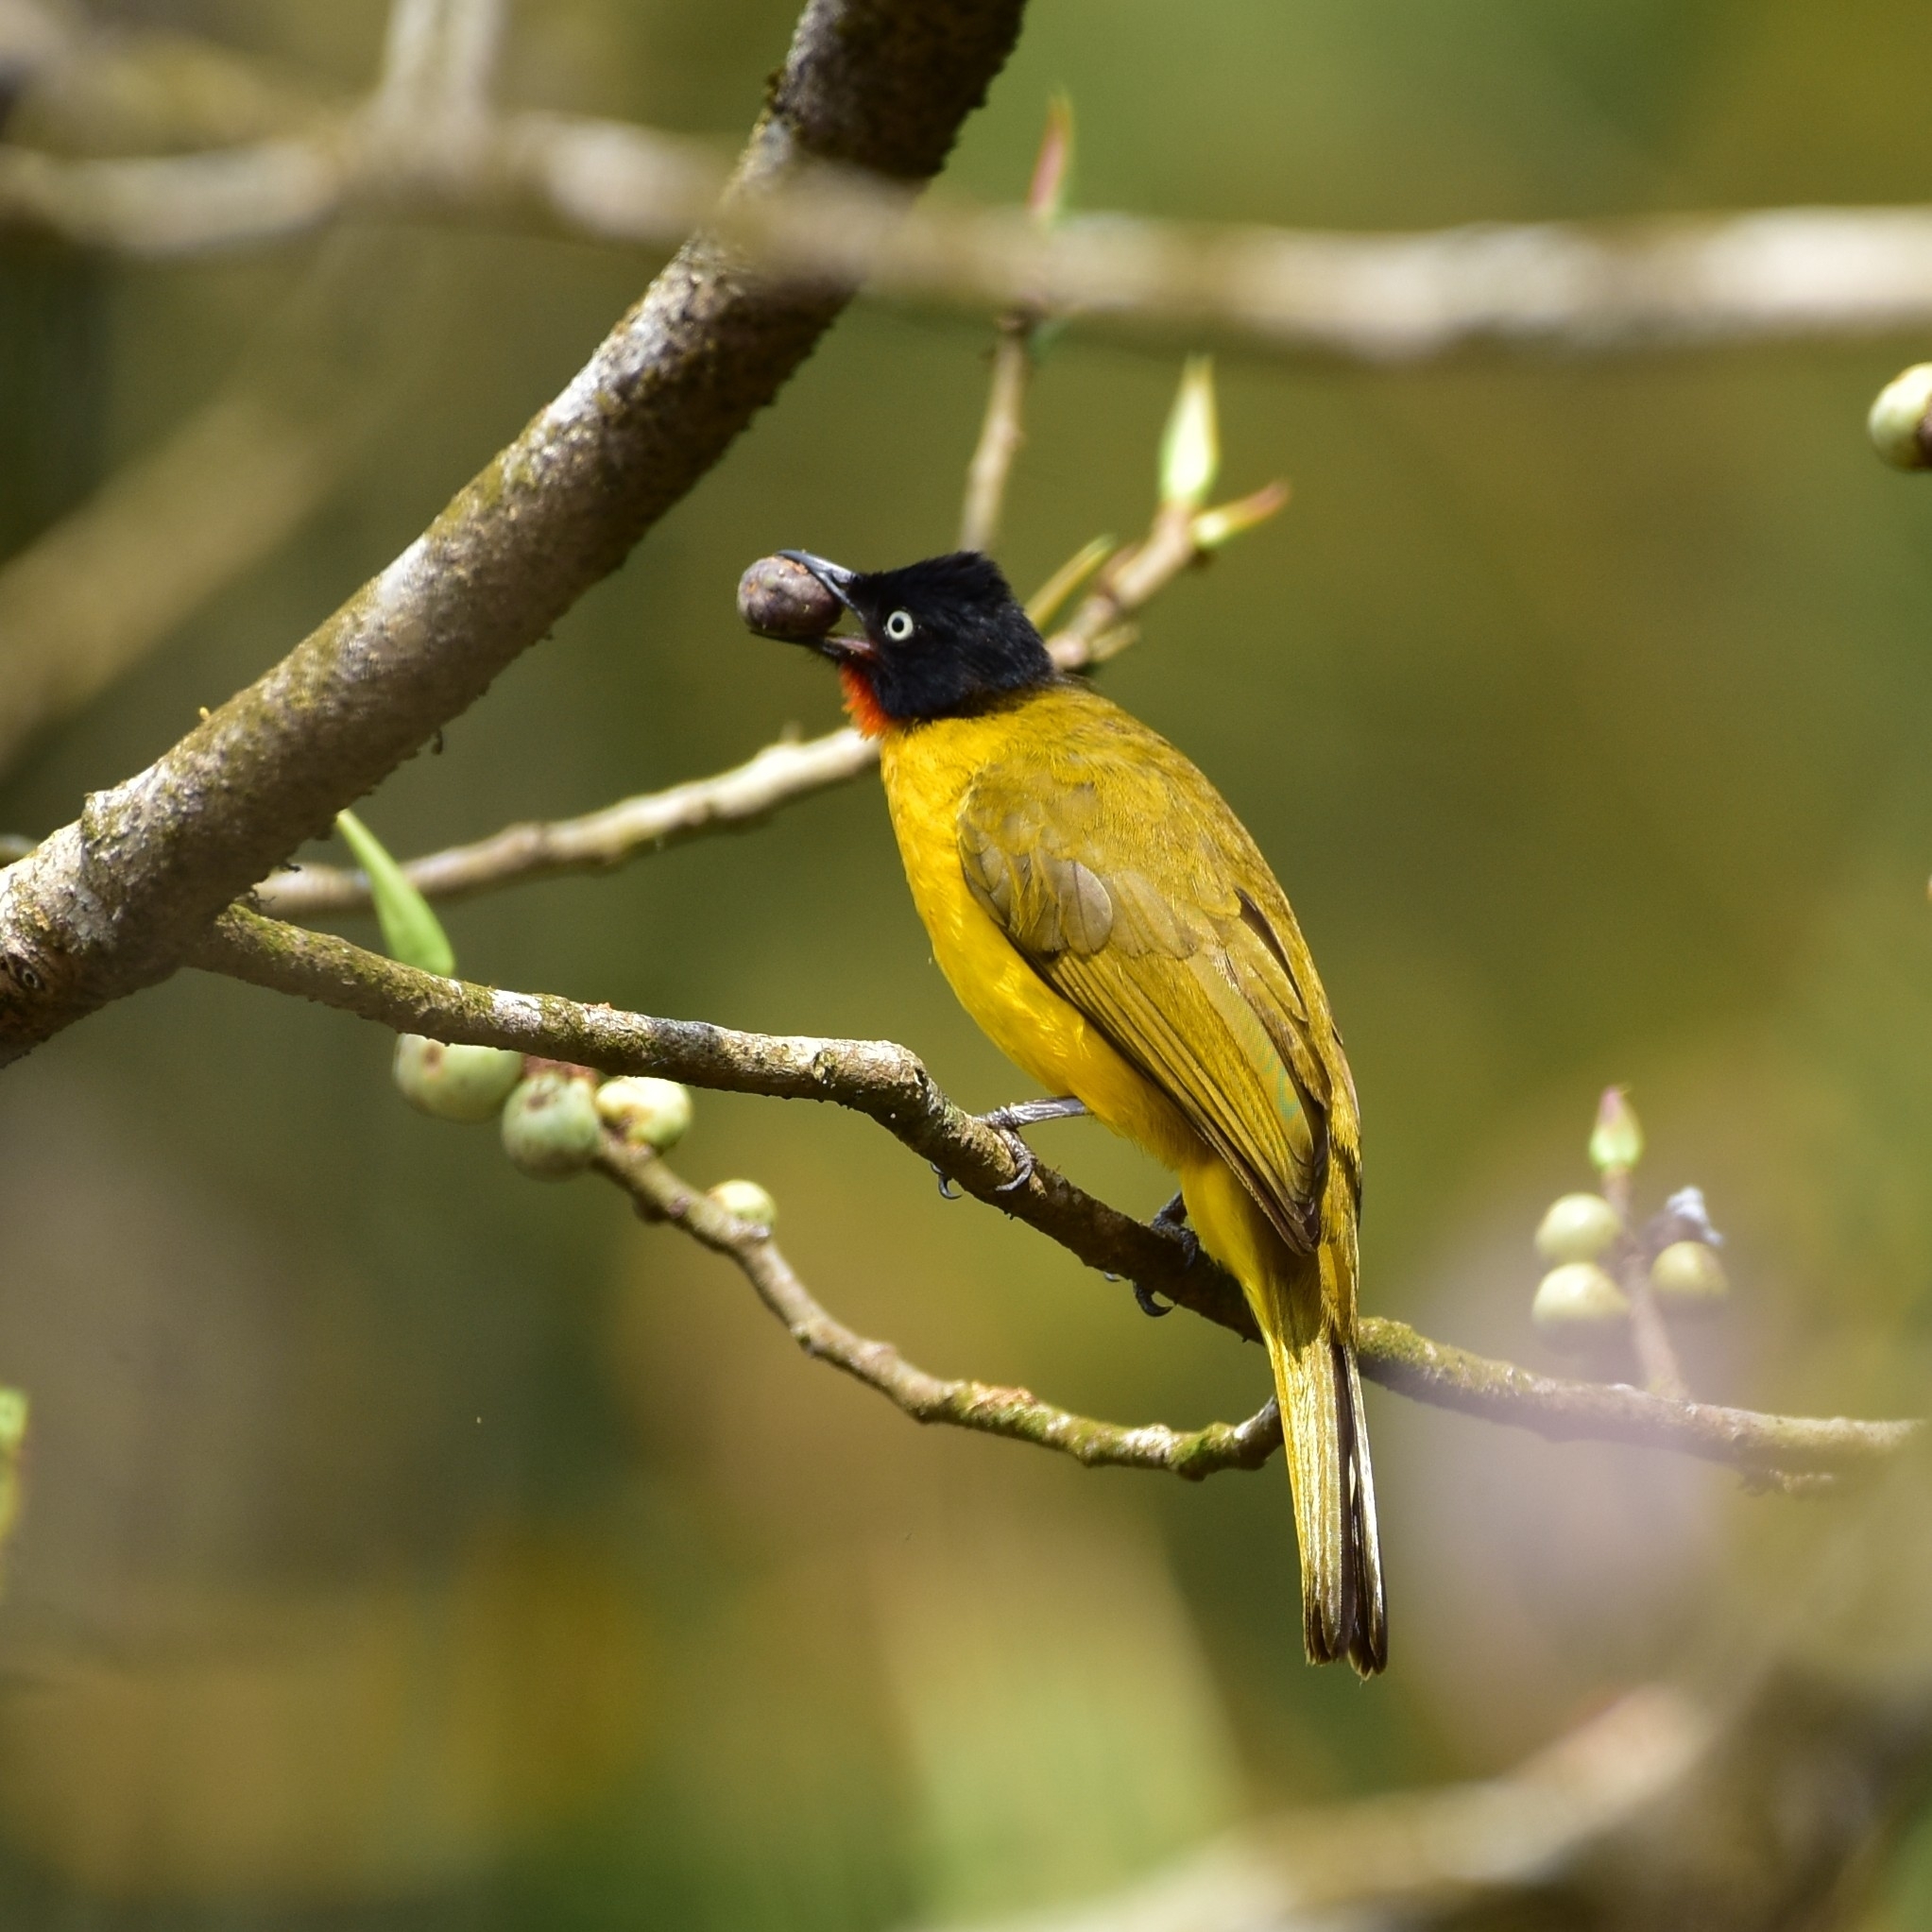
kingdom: Animalia
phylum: Chordata
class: Aves
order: Passeriformes
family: Pycnonotidae
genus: Pycnonotus
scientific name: Pycnonotus gularis
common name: Flame-throated bulbul
